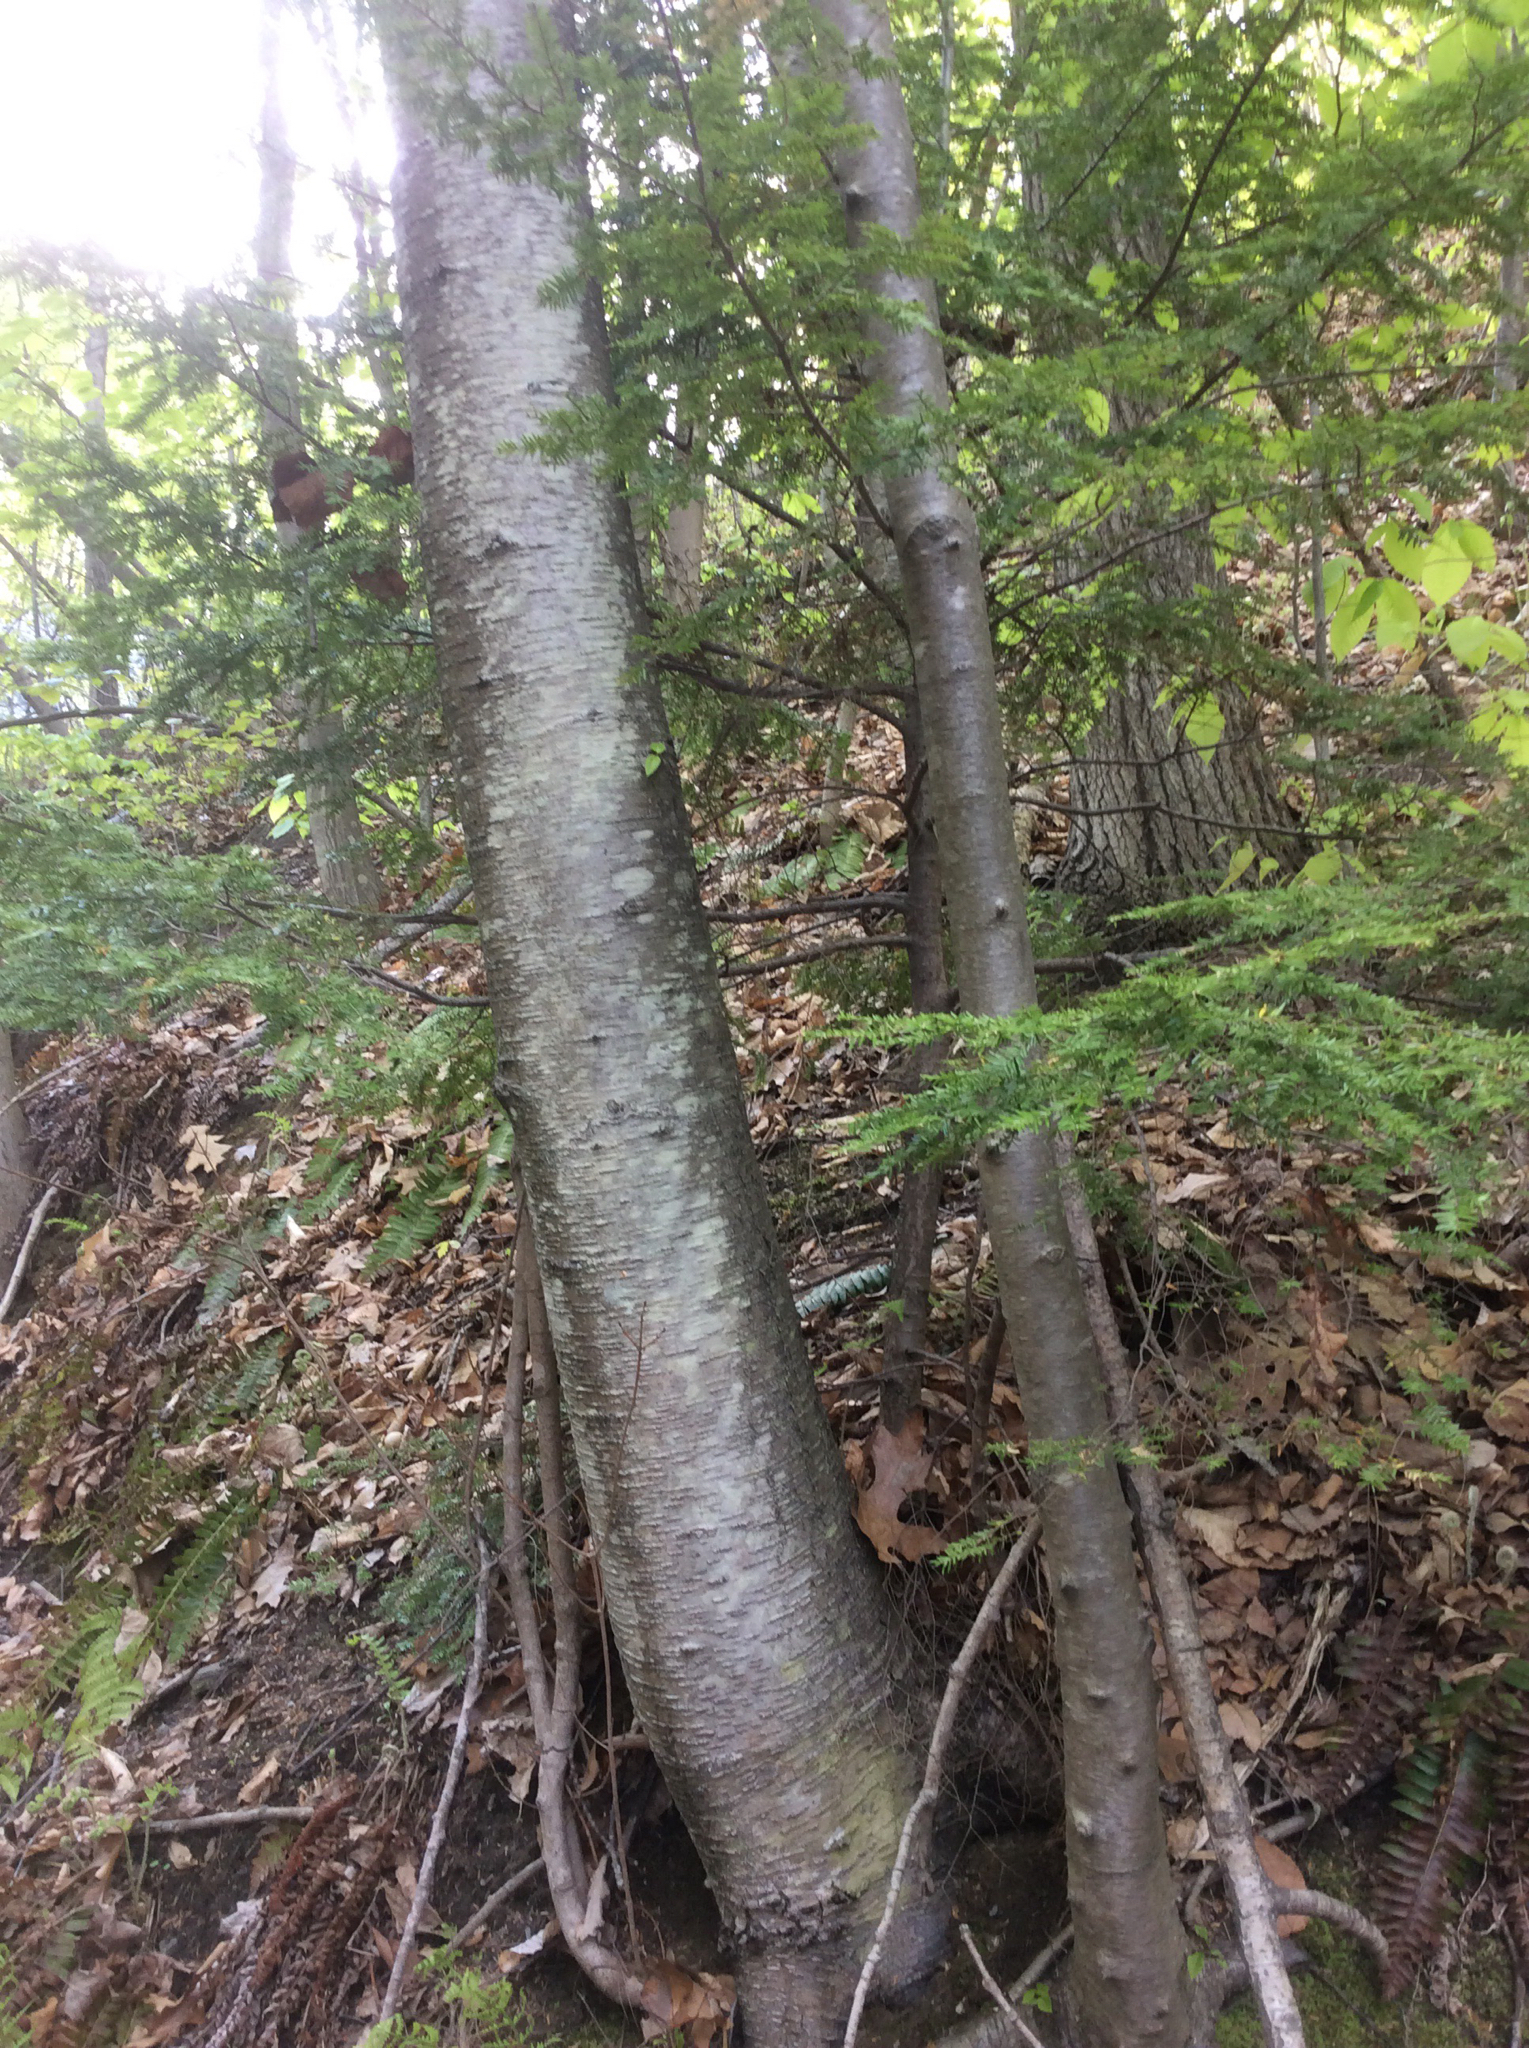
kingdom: Plantae
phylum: Tracheophyta
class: Magnoliopsida
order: Fagales
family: Betulaceae
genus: Betula
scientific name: Betula lenta
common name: Black birch
